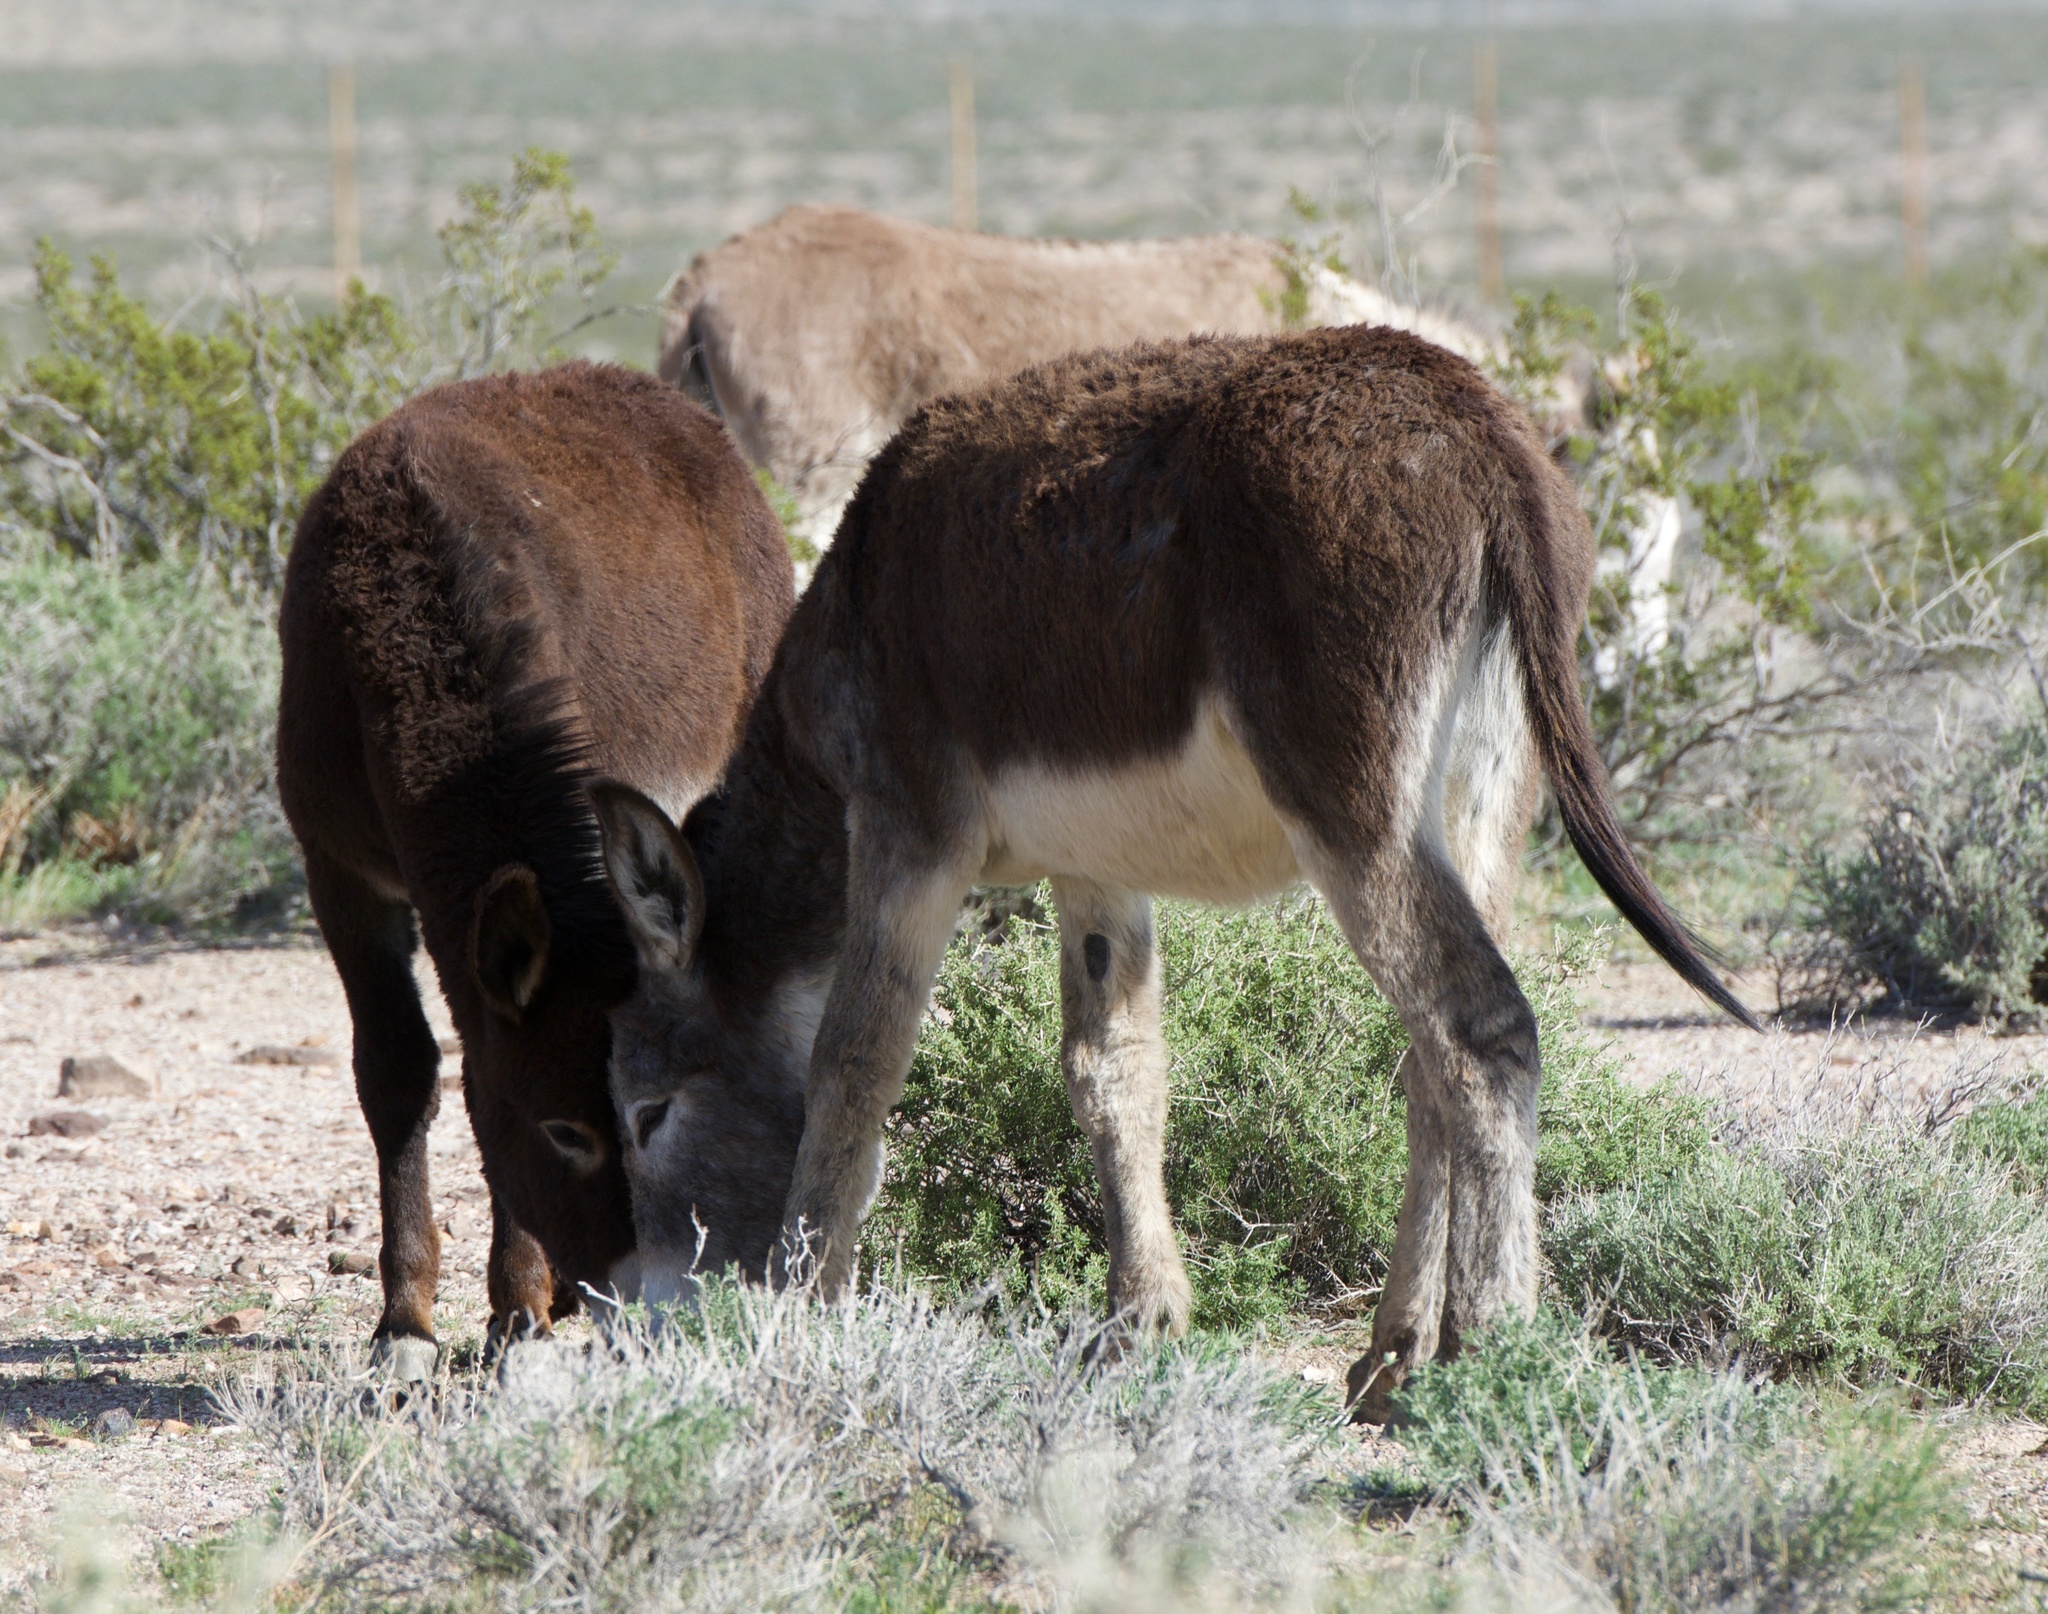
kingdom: Animalia
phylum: Chordata
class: Mammalia
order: Perissodactyla
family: Equidae
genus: Equus
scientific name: Equus asinus
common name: Ass
